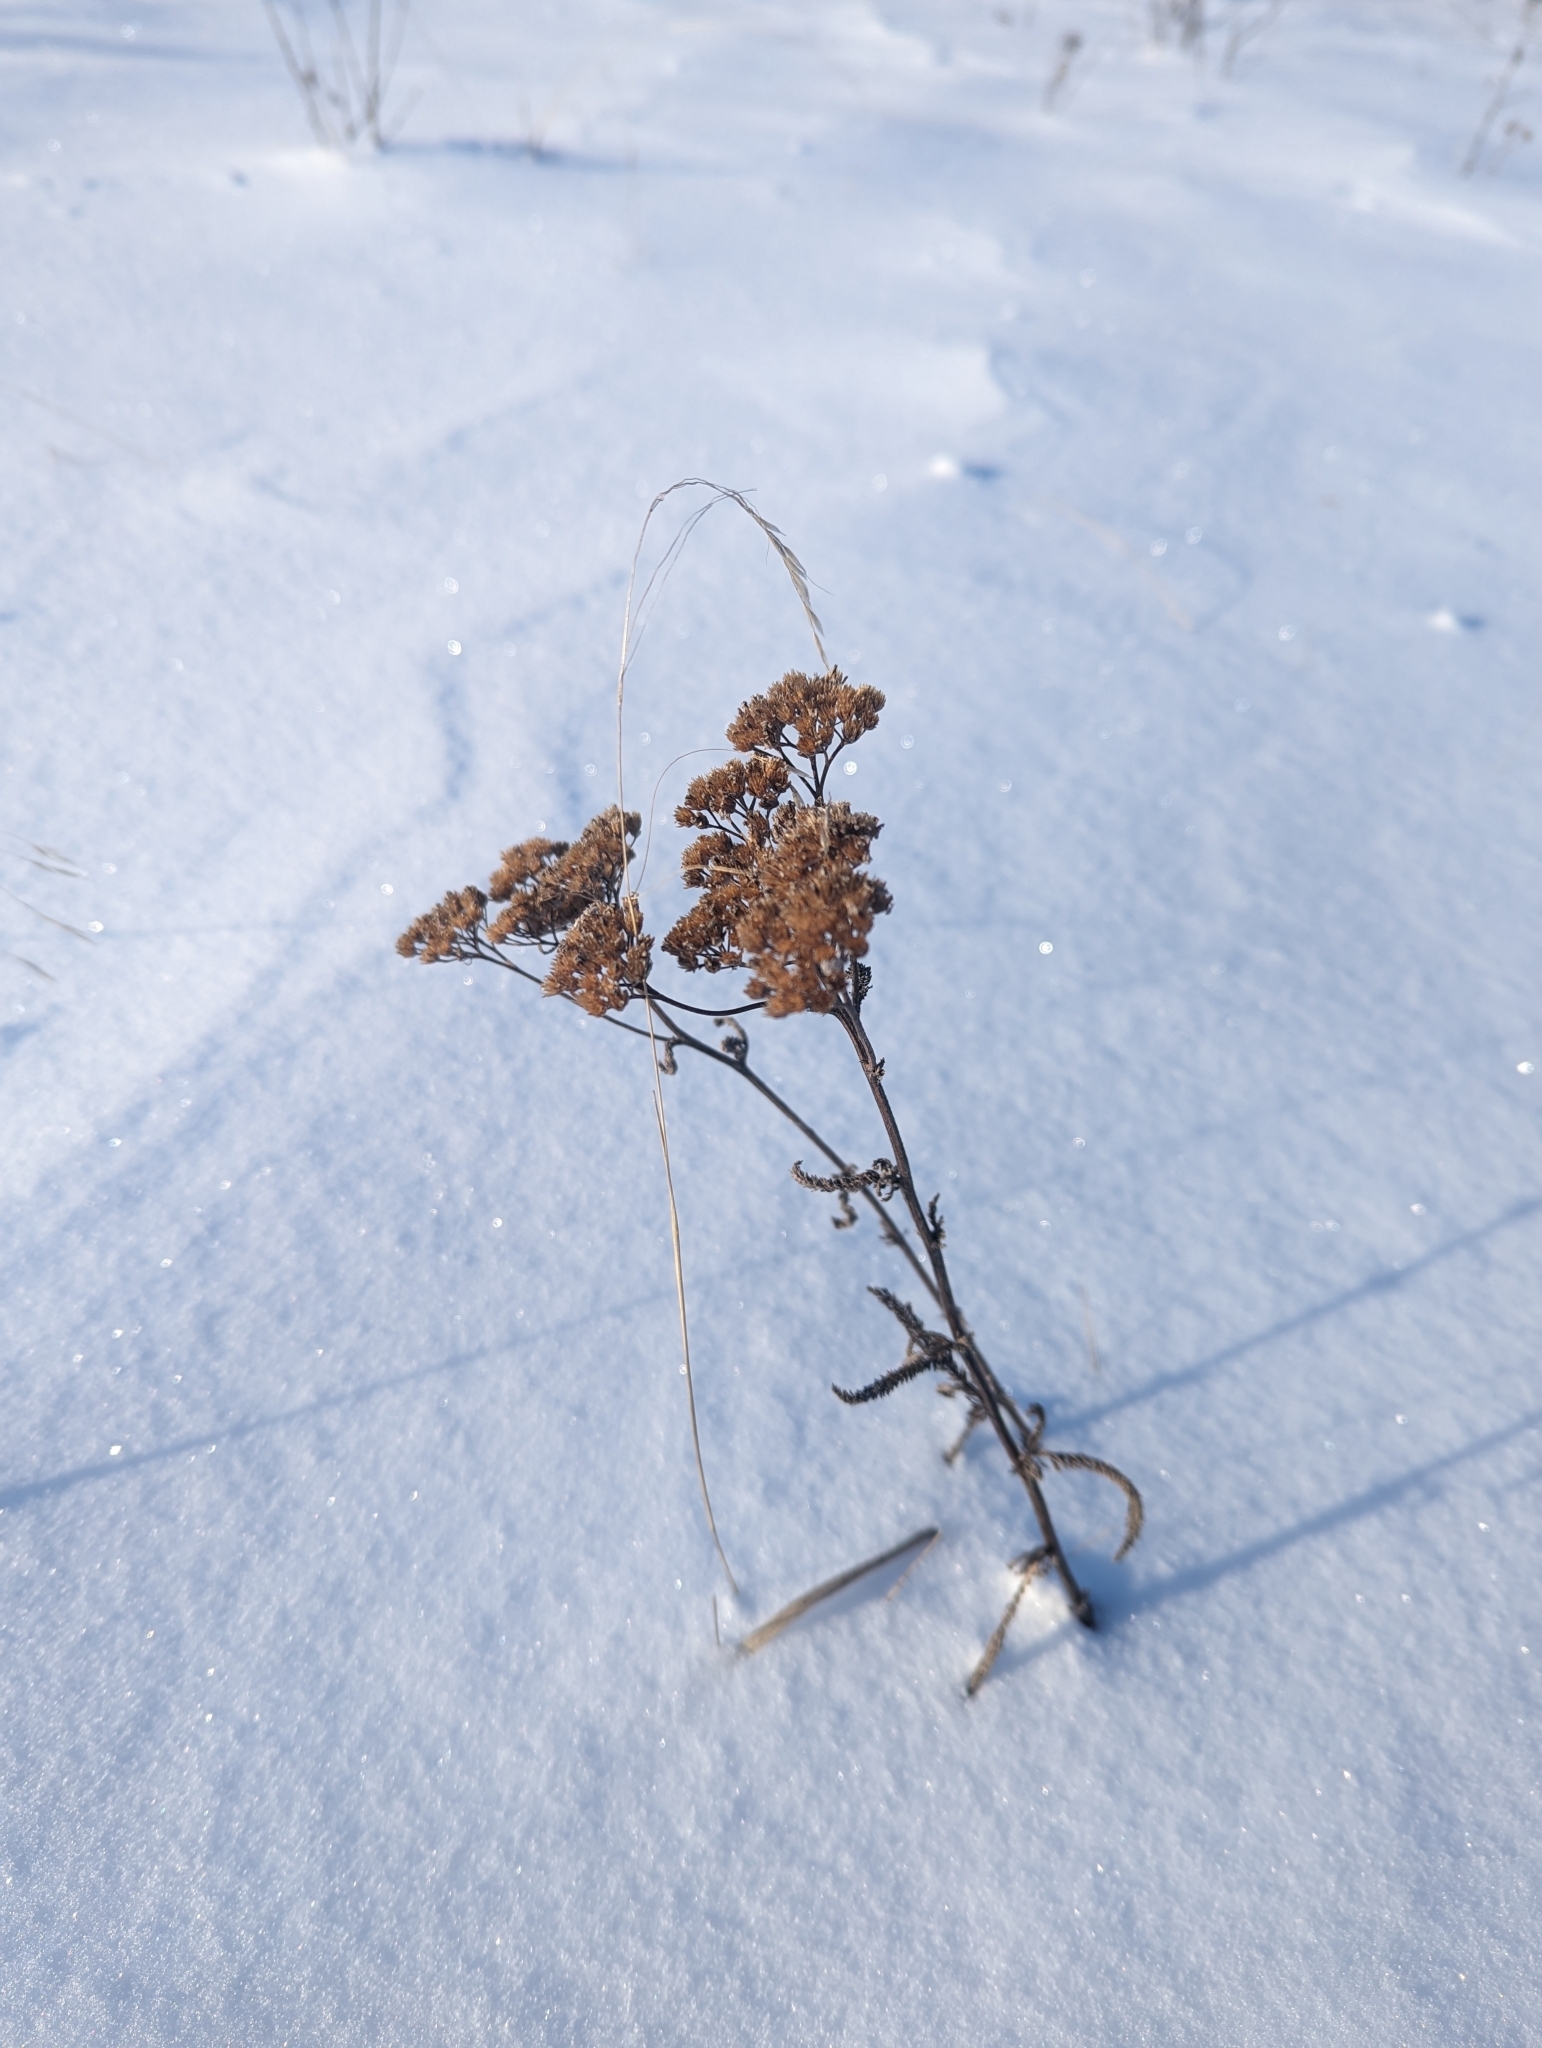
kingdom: Plantae
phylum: Tracheophyta
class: Magnoliopsida
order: Asterales
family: Asteraceae
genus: Achillea
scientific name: Achillea millefolium
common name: Yarrow
